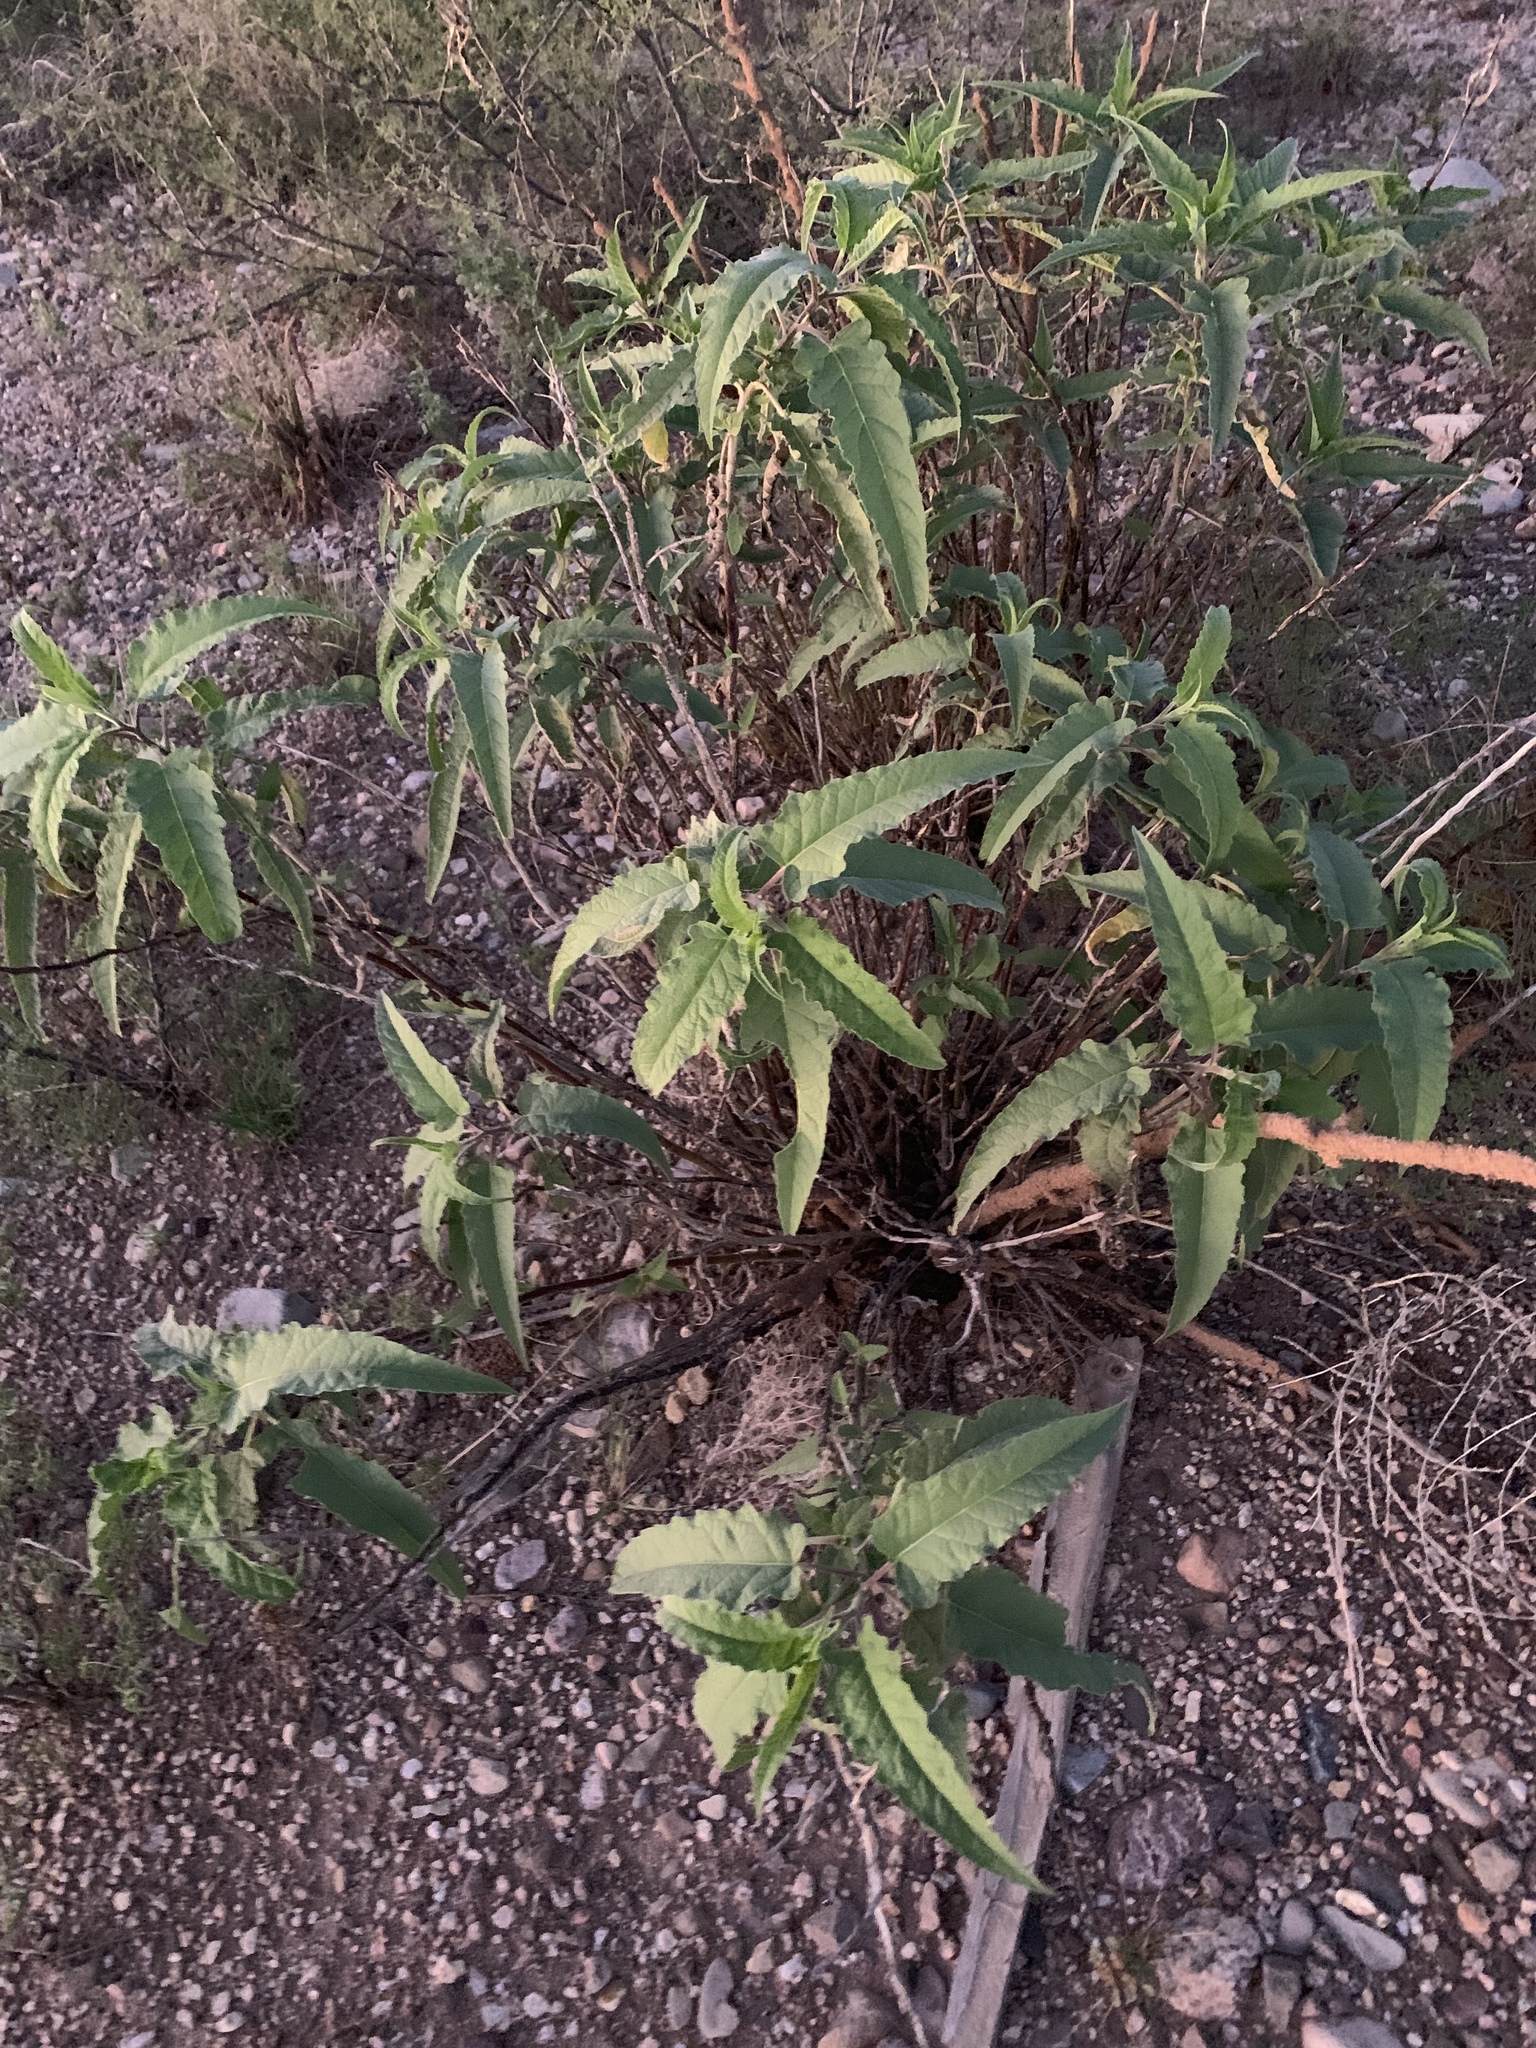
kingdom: Plantae
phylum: Tracheophyta
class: Magnoliopsida
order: Asterales
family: Asteraceae
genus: Ambrosia
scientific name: Ambrosia ambrosioides
